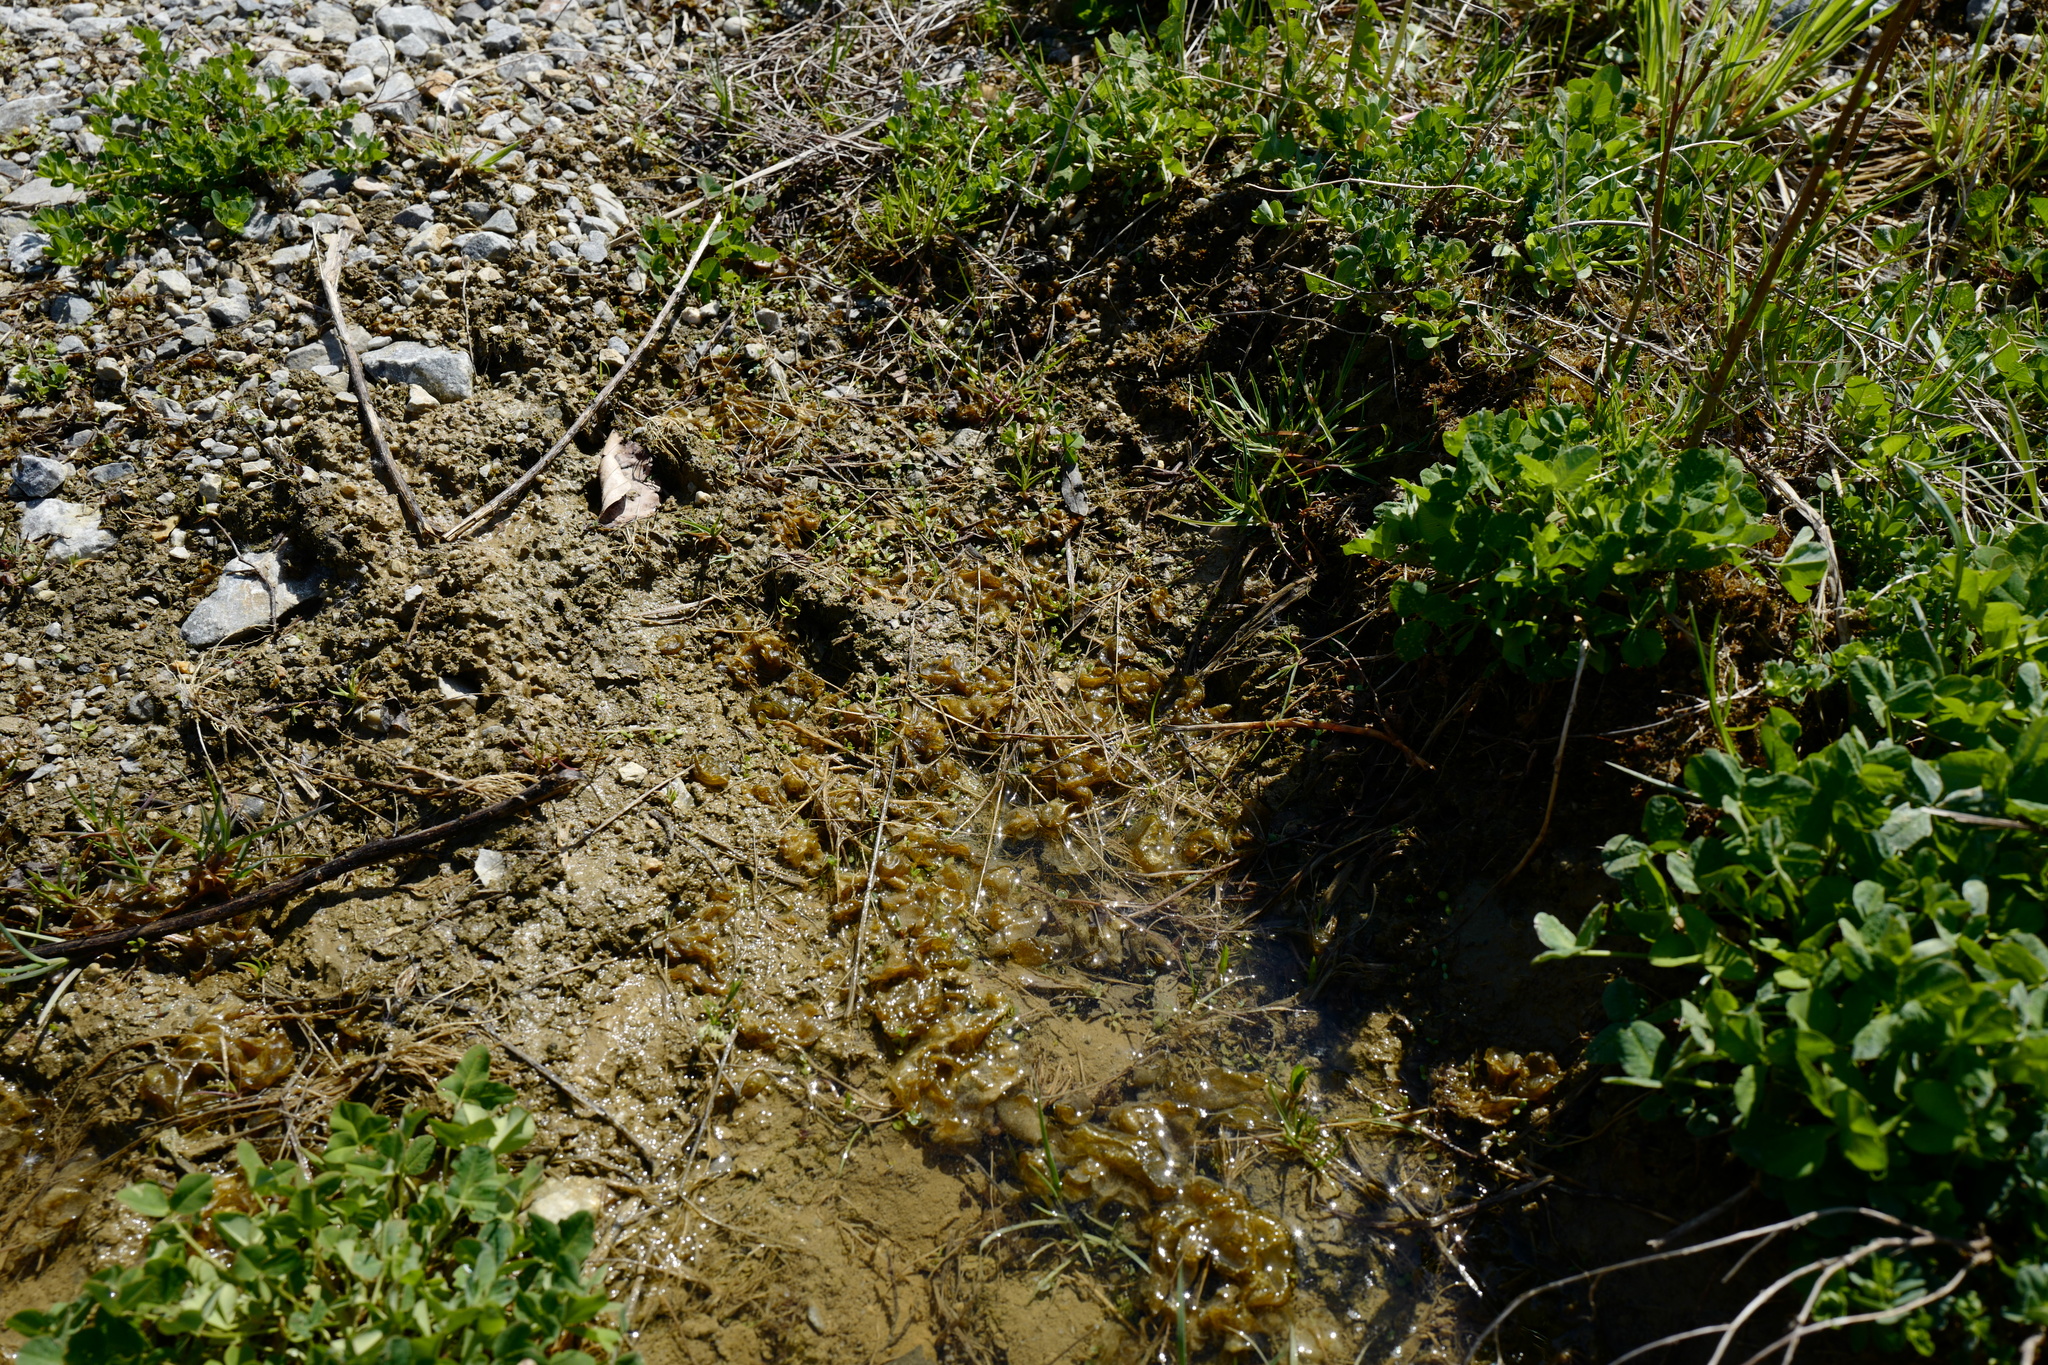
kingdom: Bacteria
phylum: Cyanobacteria
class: Cyanobacteriia
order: Cyanobacteriales
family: Nostocaceae
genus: Nostoc
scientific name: Nostoc
